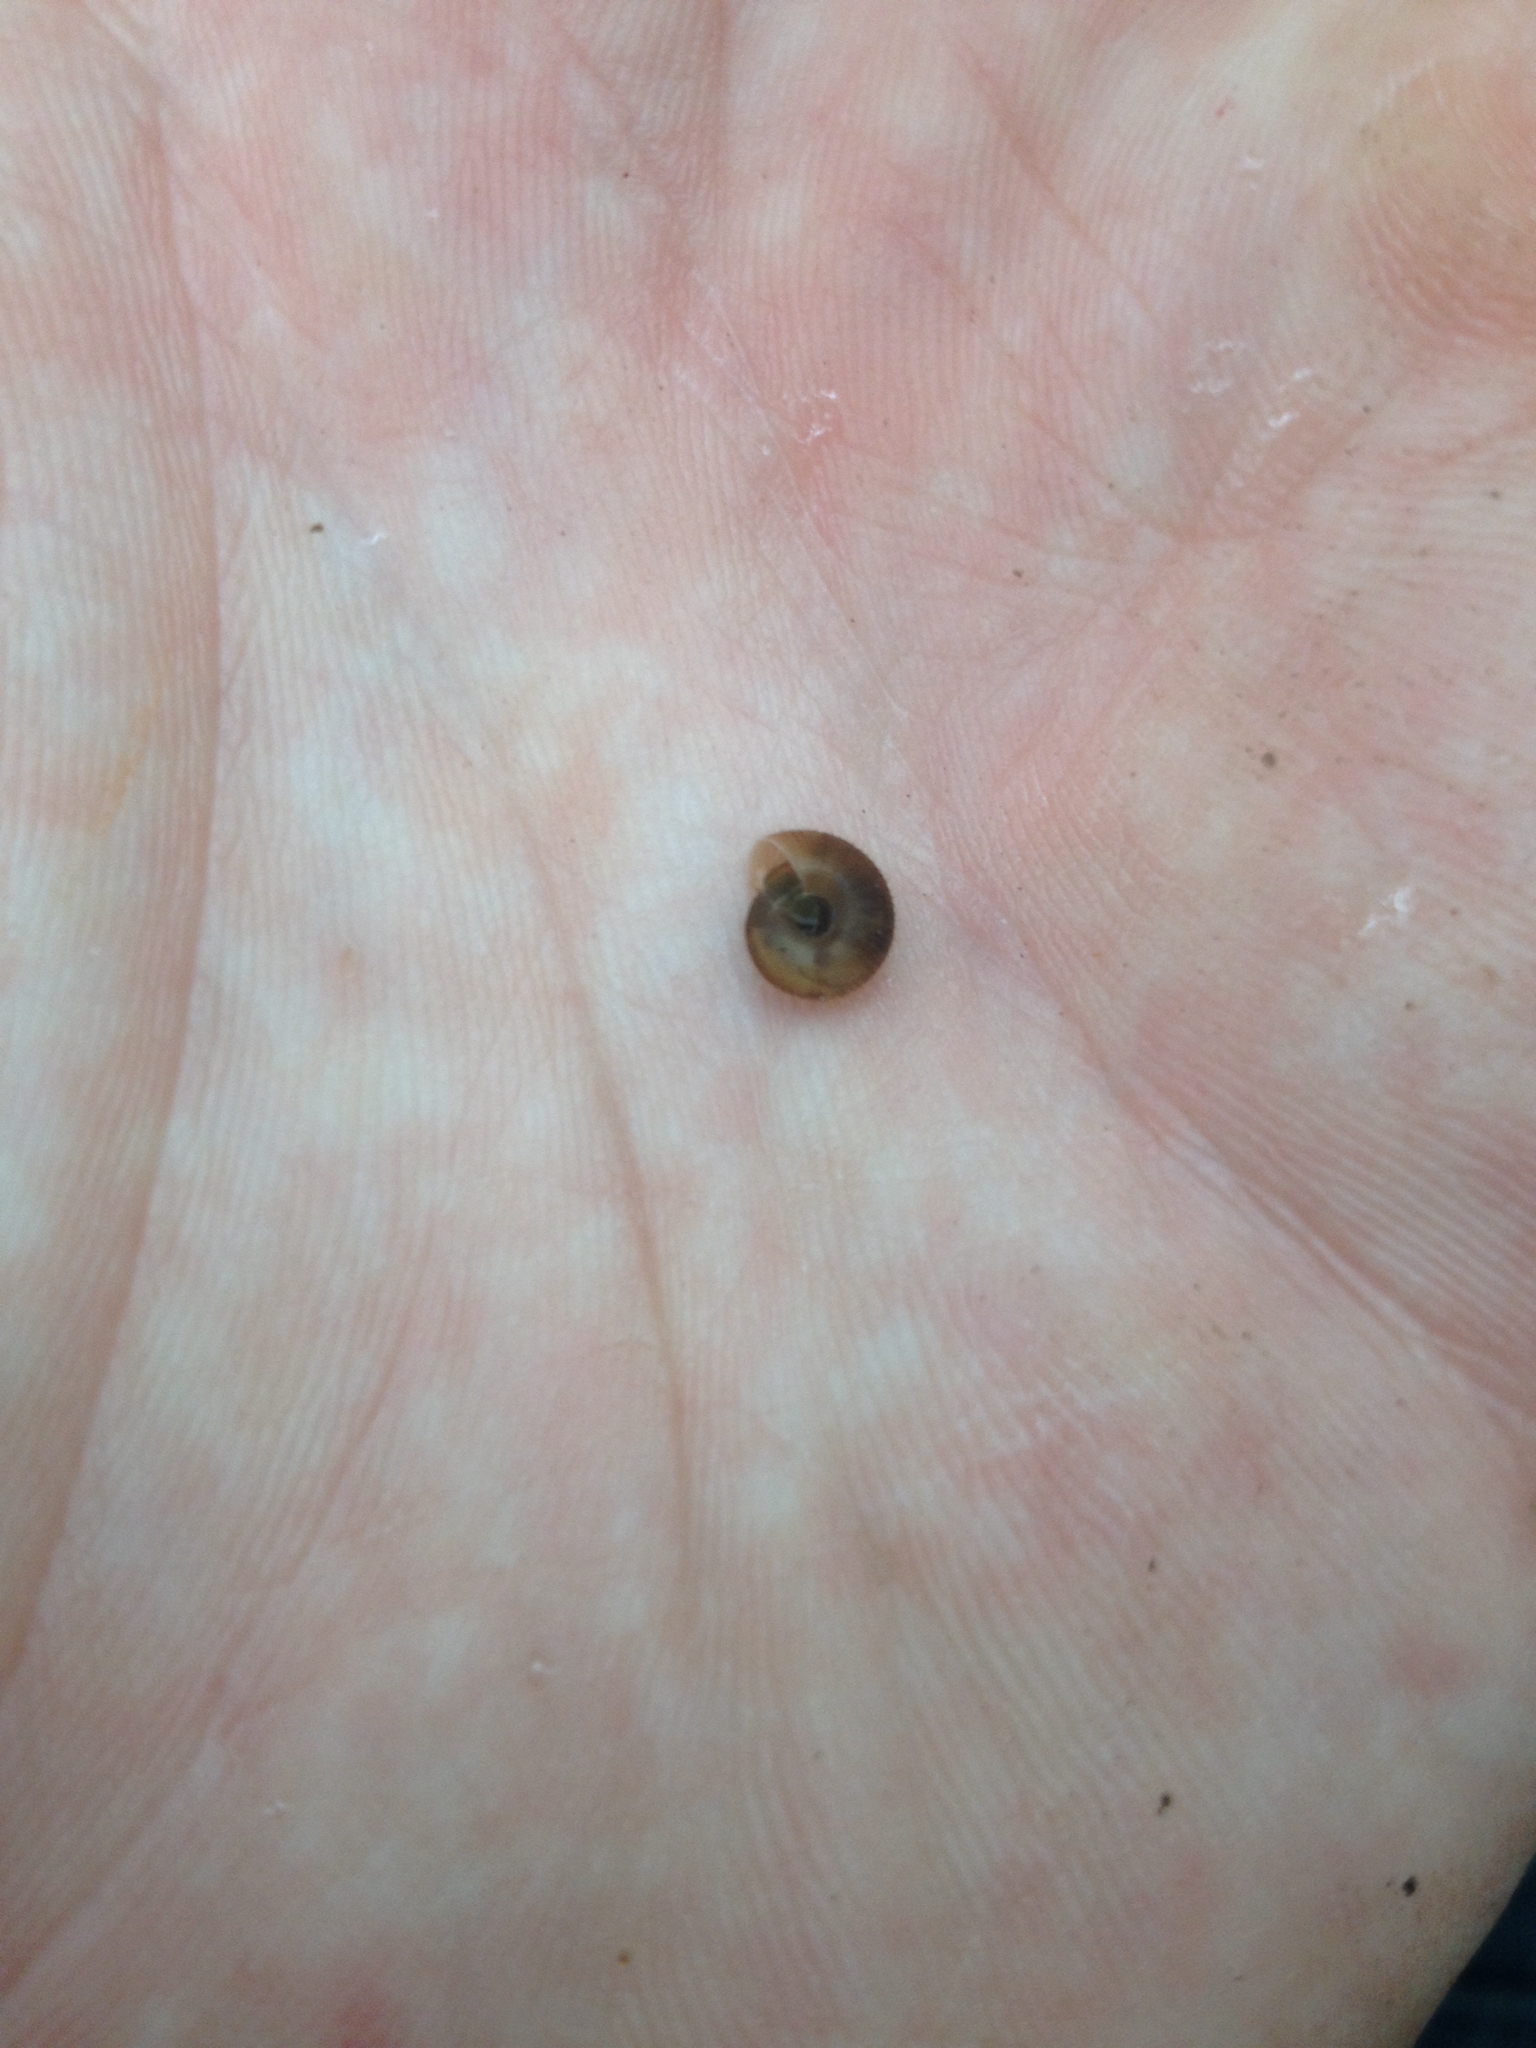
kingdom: Animalia
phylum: Mollusca
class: Gastropoda
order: Stylommatophora
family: Charopidae
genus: Suteria
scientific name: Suteria ide
